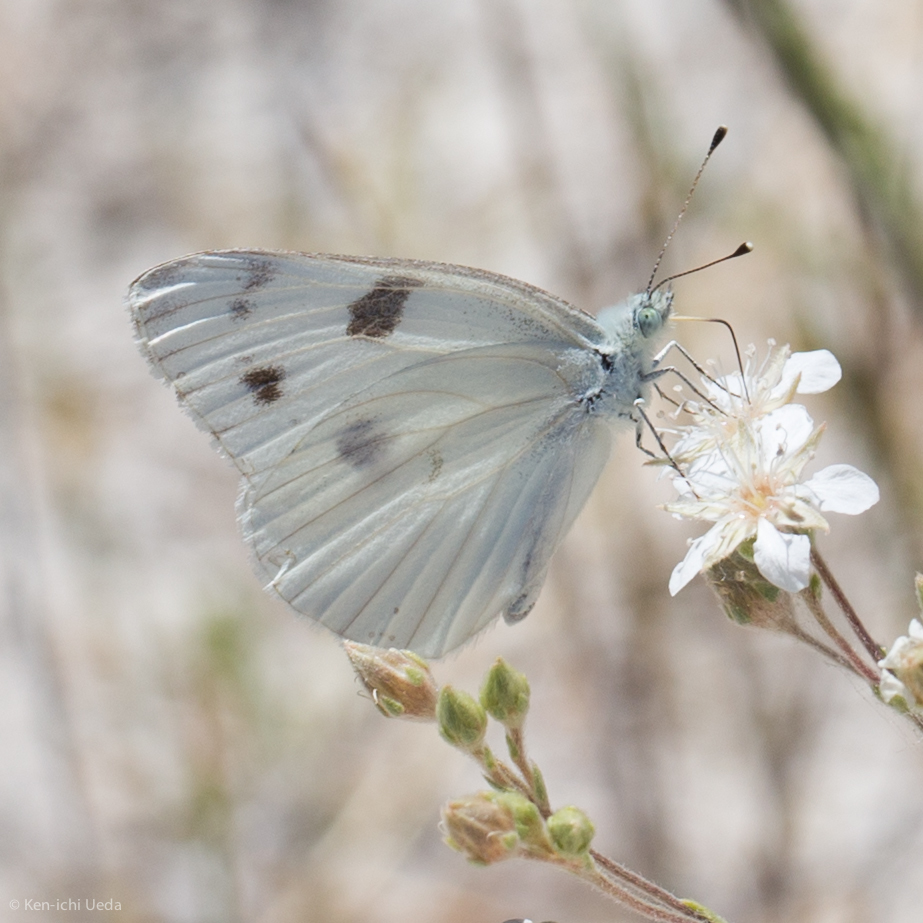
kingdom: Animalia
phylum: Arthropoda
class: Insecta
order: Lepidoptera
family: Pieridae
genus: Pontia
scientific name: Pontia protodice
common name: Checkered white
